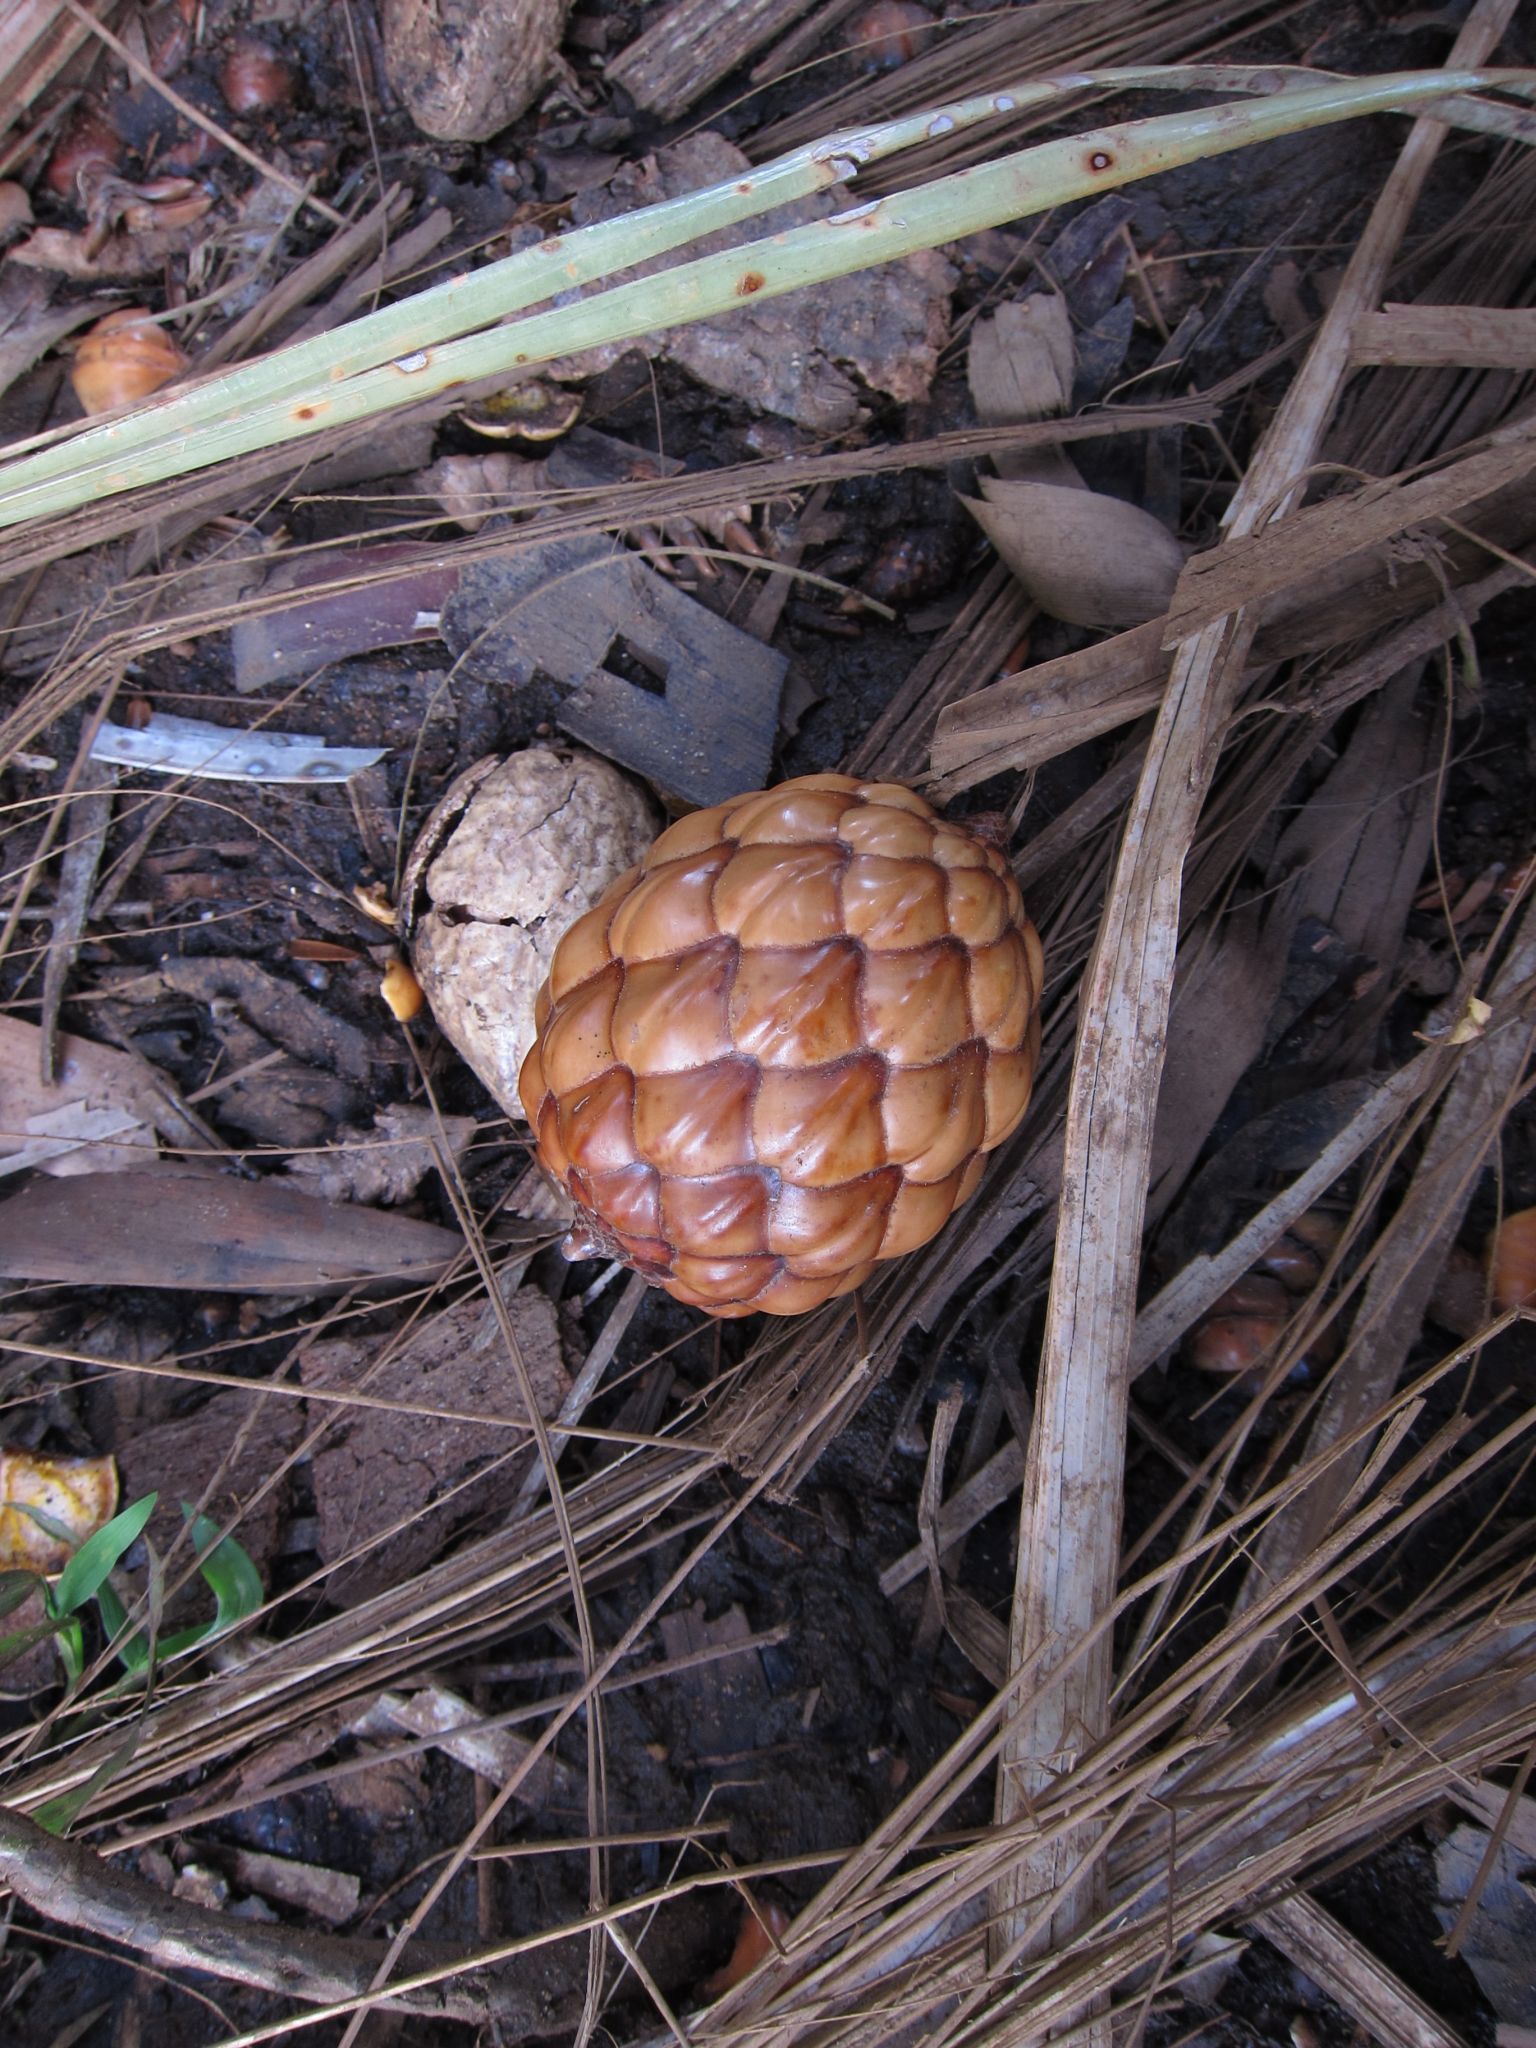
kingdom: Plantae
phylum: Tracheophyta
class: Liliopsida
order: Arecales
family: Arecaceae
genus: Raphia
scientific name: Raphia farinifera
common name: Raphia palm
